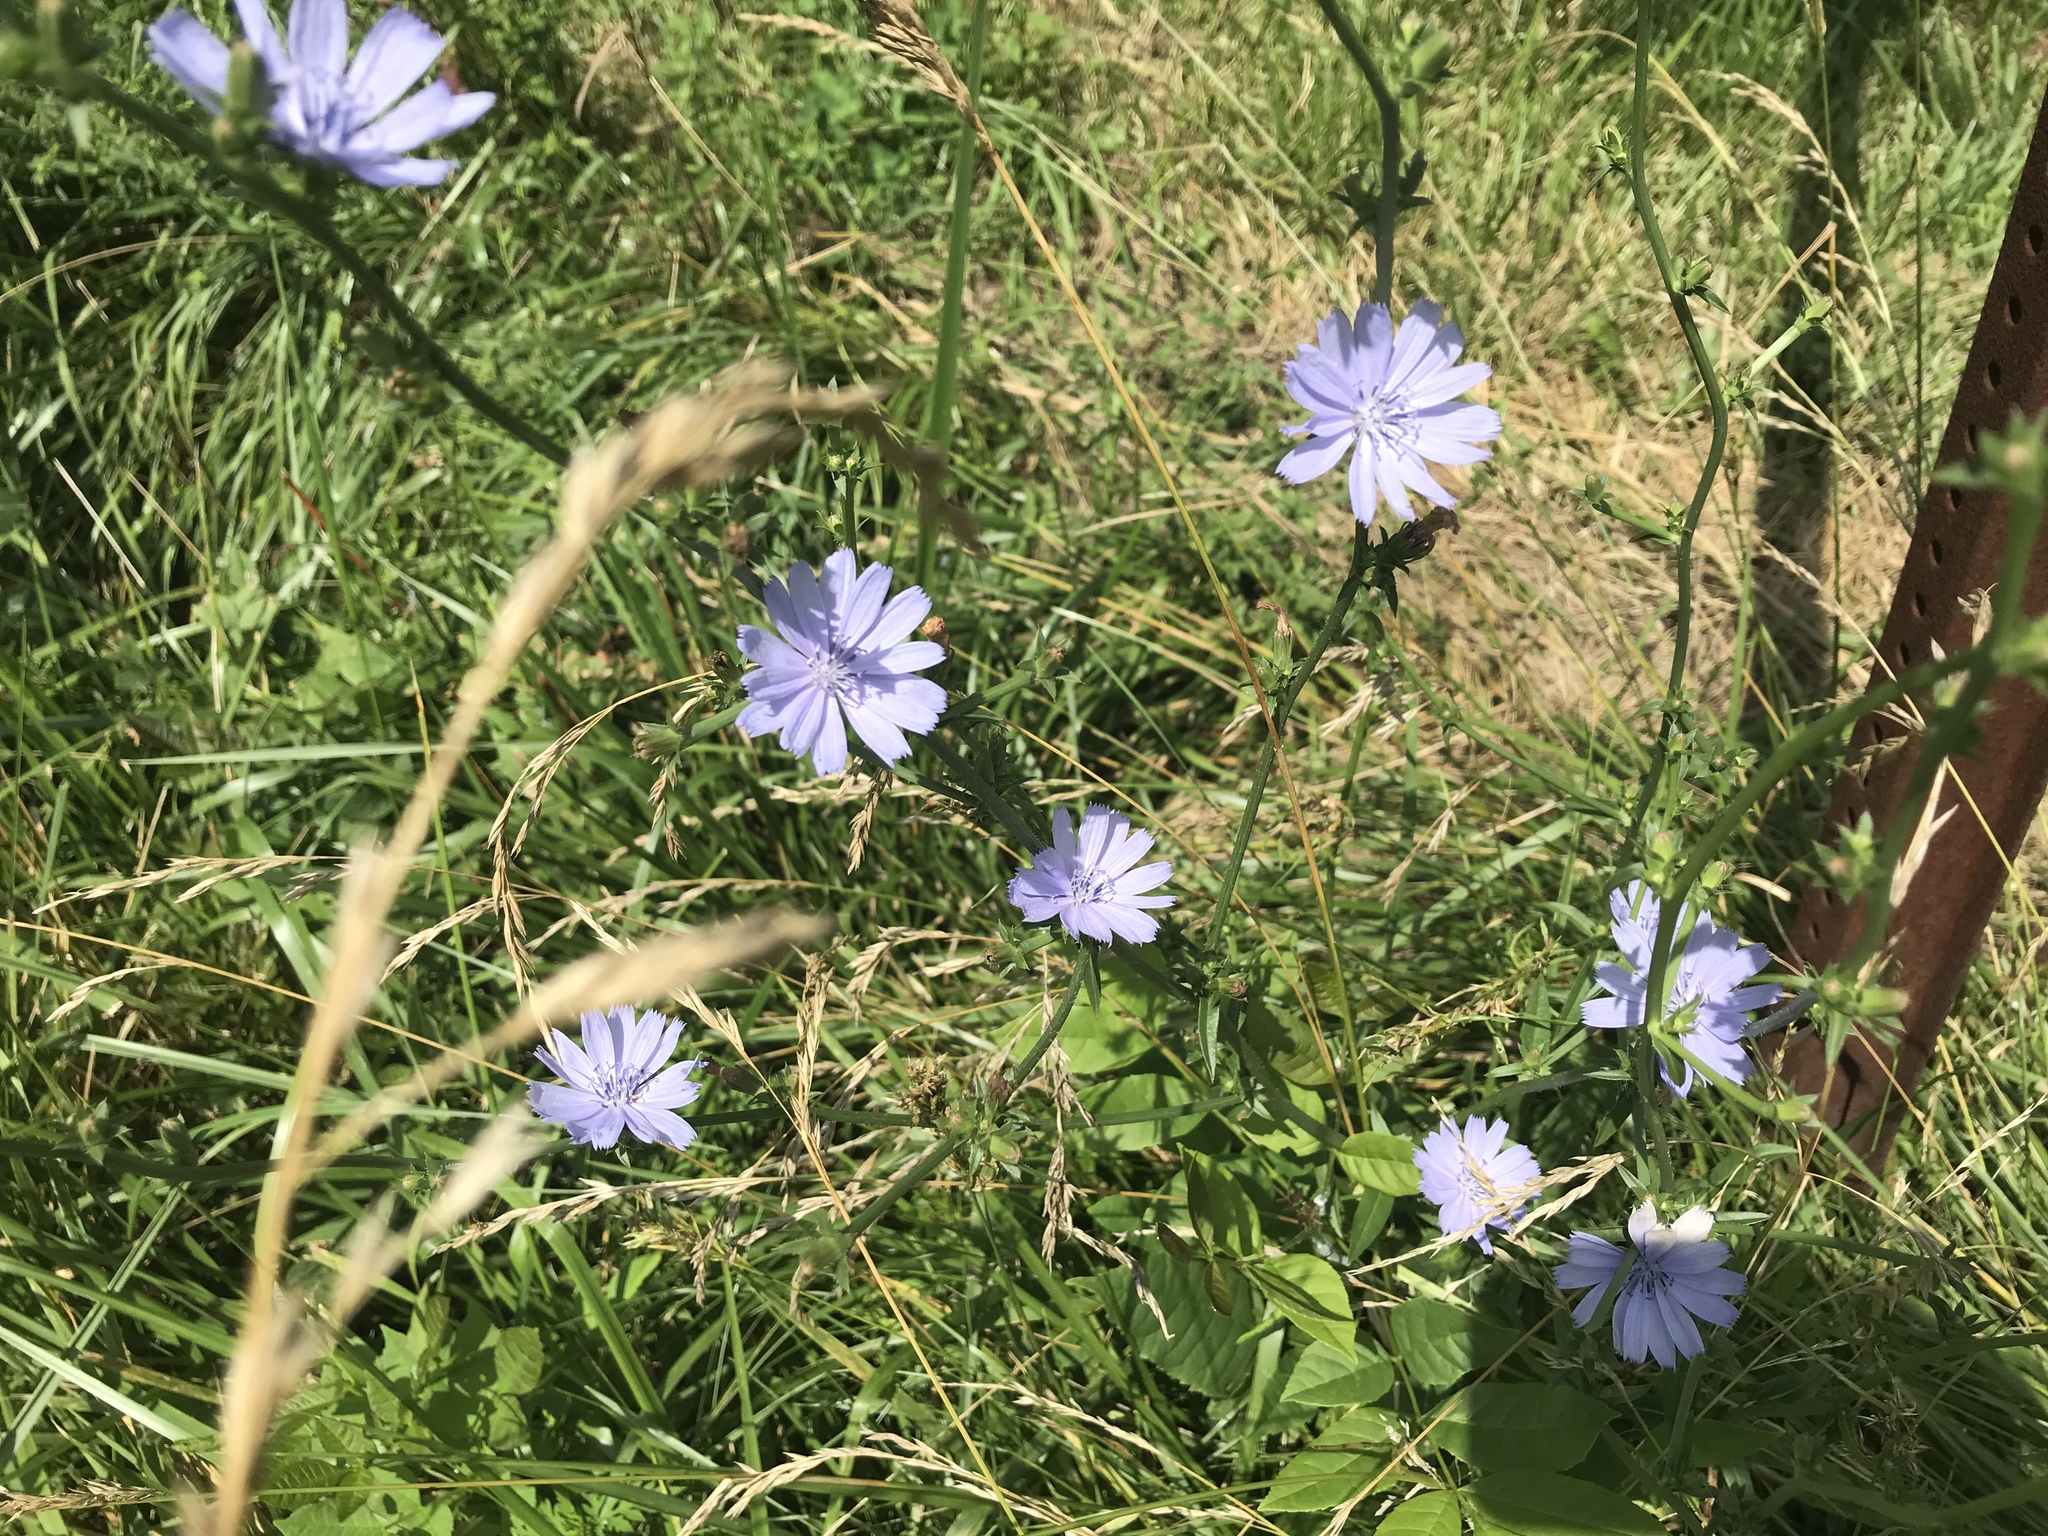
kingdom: Plantae
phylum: Tracheophyta
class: Magnoliopsida
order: Asterales
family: Asteraceae
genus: Cichorium
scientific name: Cichorium intybus
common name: Chicory
